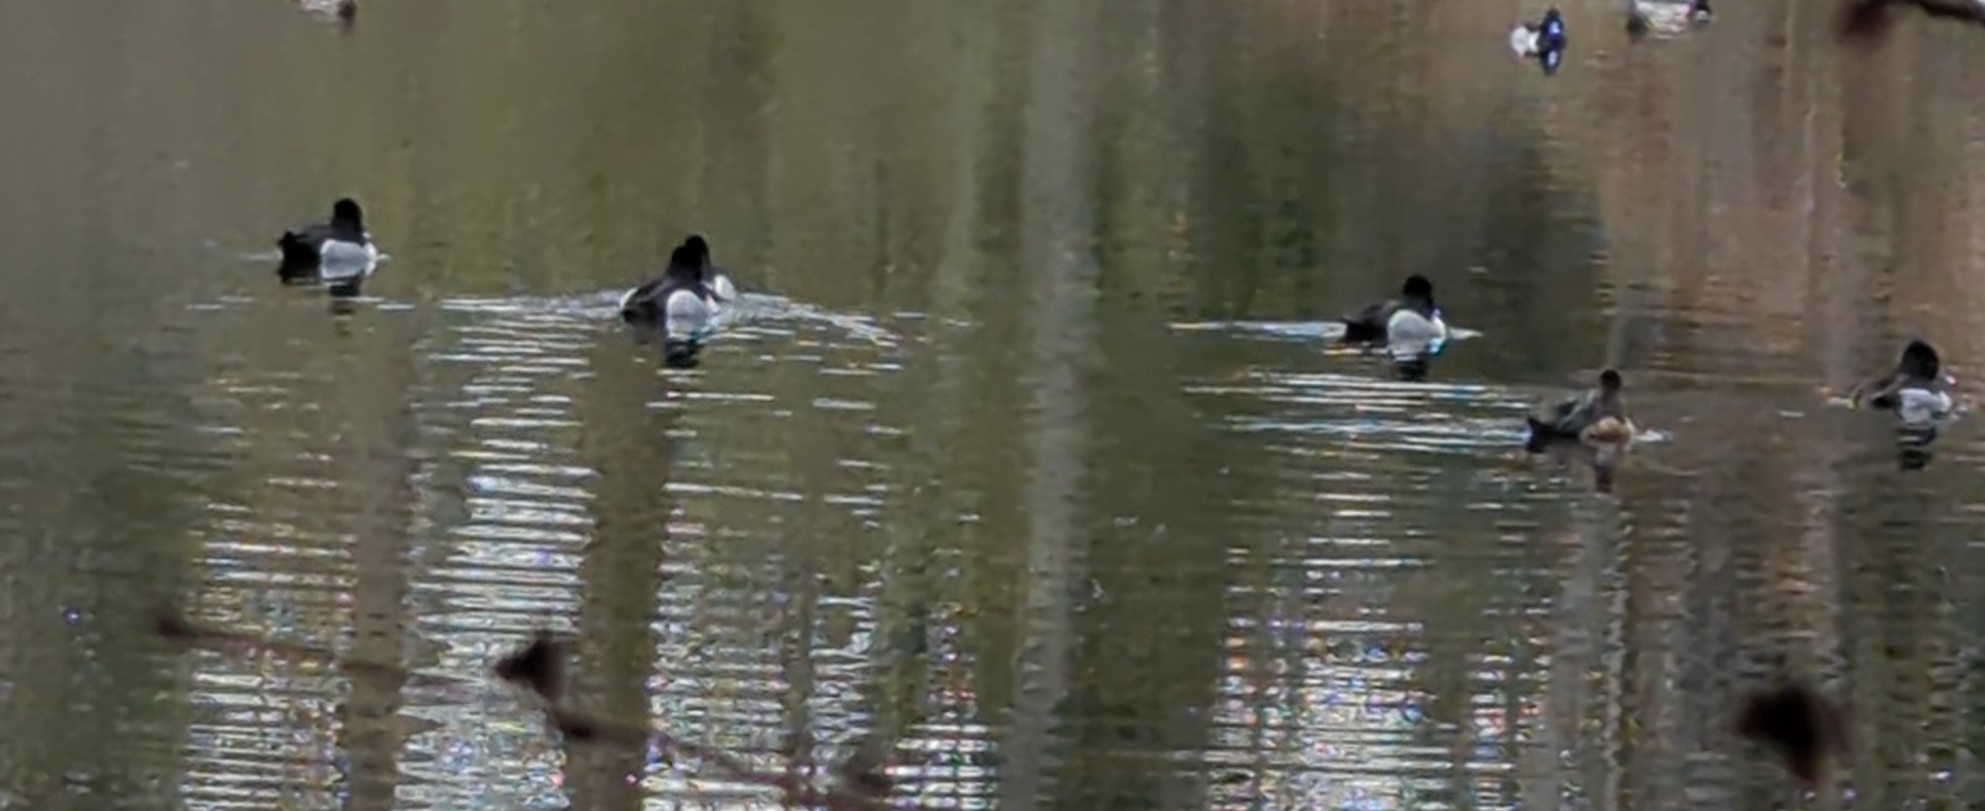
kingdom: Animalia
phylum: Chordata
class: Aves
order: Anseriformes
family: Anatidae
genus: Aythya
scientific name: Aythya collaris
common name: Ring-necked duck
